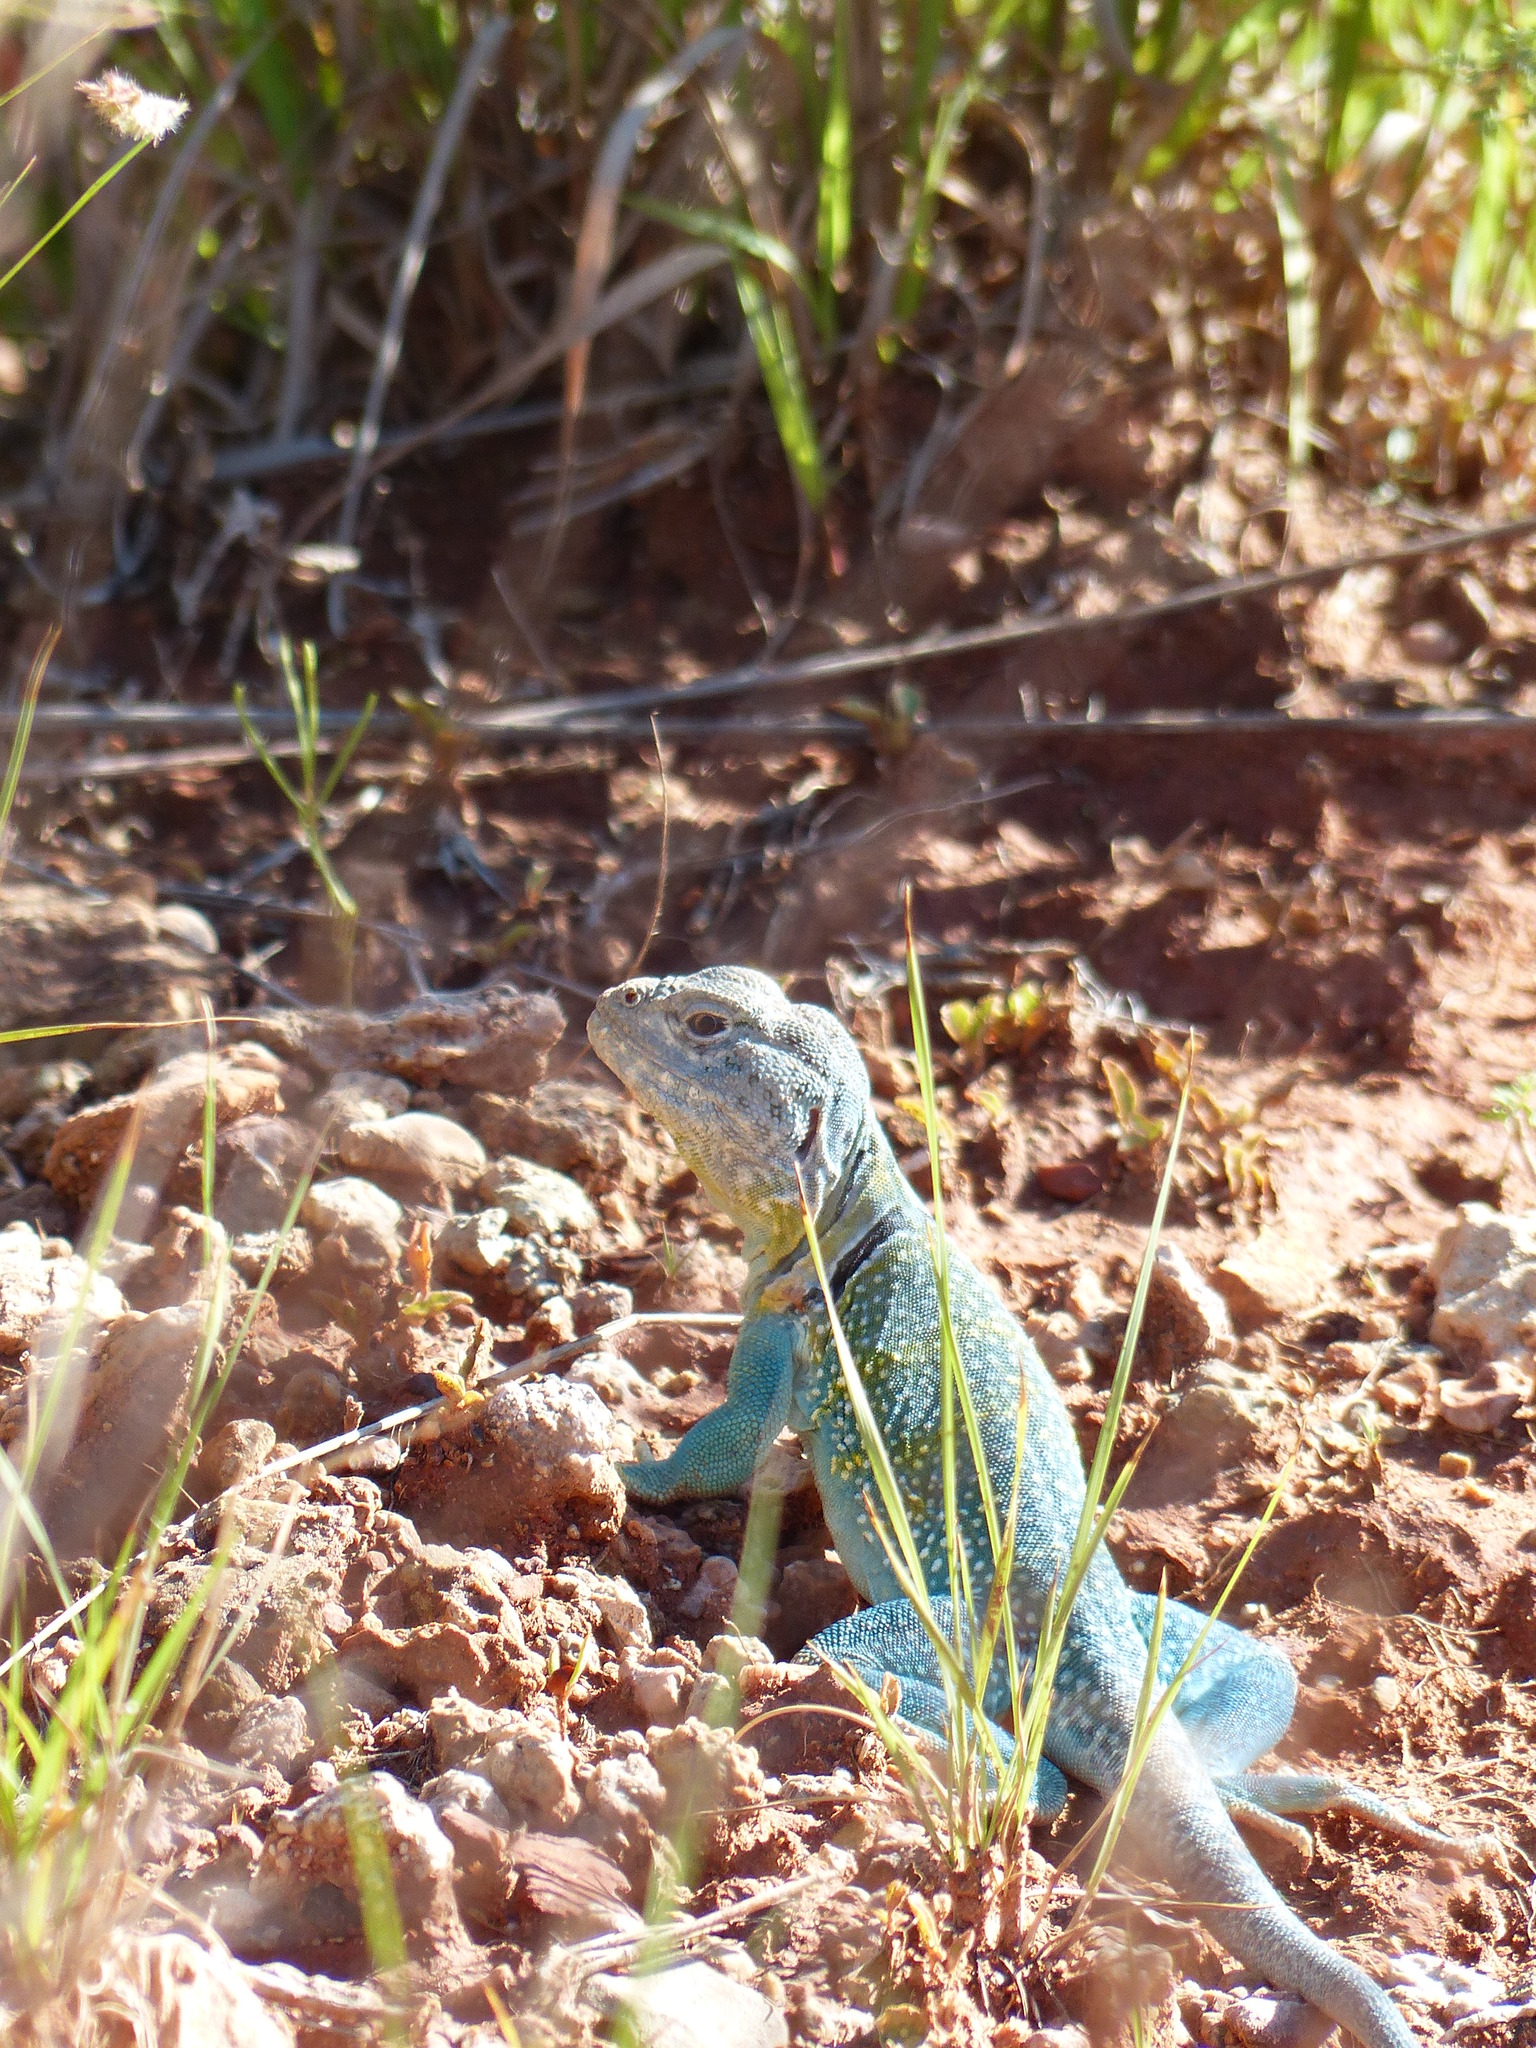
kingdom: Animalia
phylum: Chordata
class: Squamata
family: Crotaphytidae
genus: Crotaphytus
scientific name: Crotaphytus collaris
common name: Collared lizard
